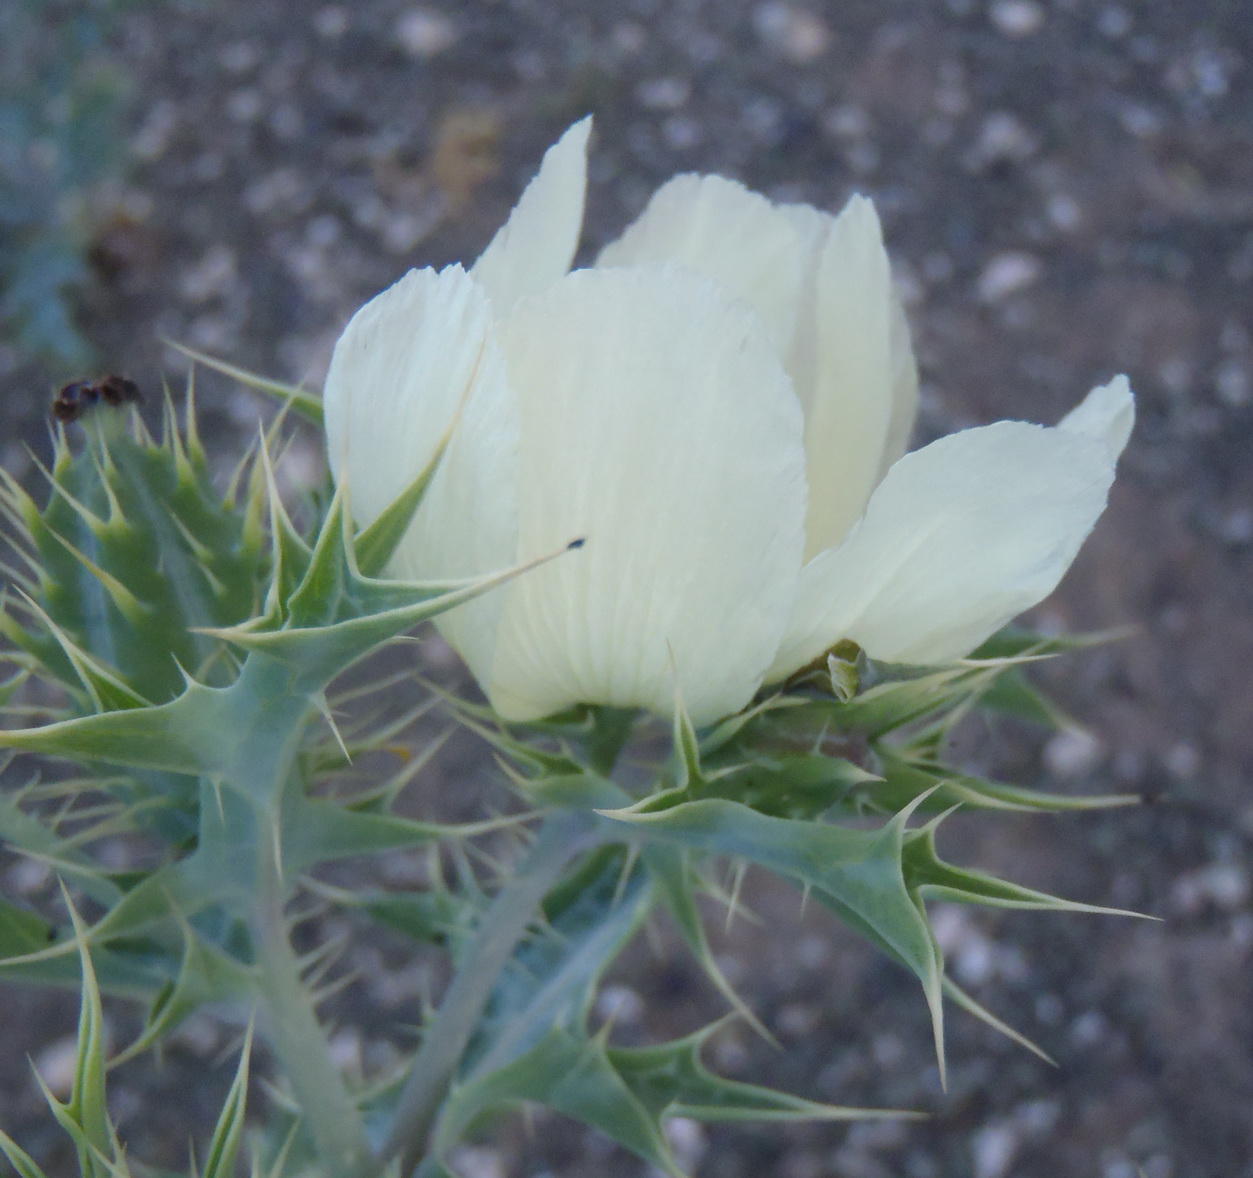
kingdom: Plantae
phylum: Tracheophyta
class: Magnoliopsida
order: Ranunculales
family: Papaveraceae
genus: Argemone
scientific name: Argemone ochroleuca
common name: White-flower mexican-poppy
